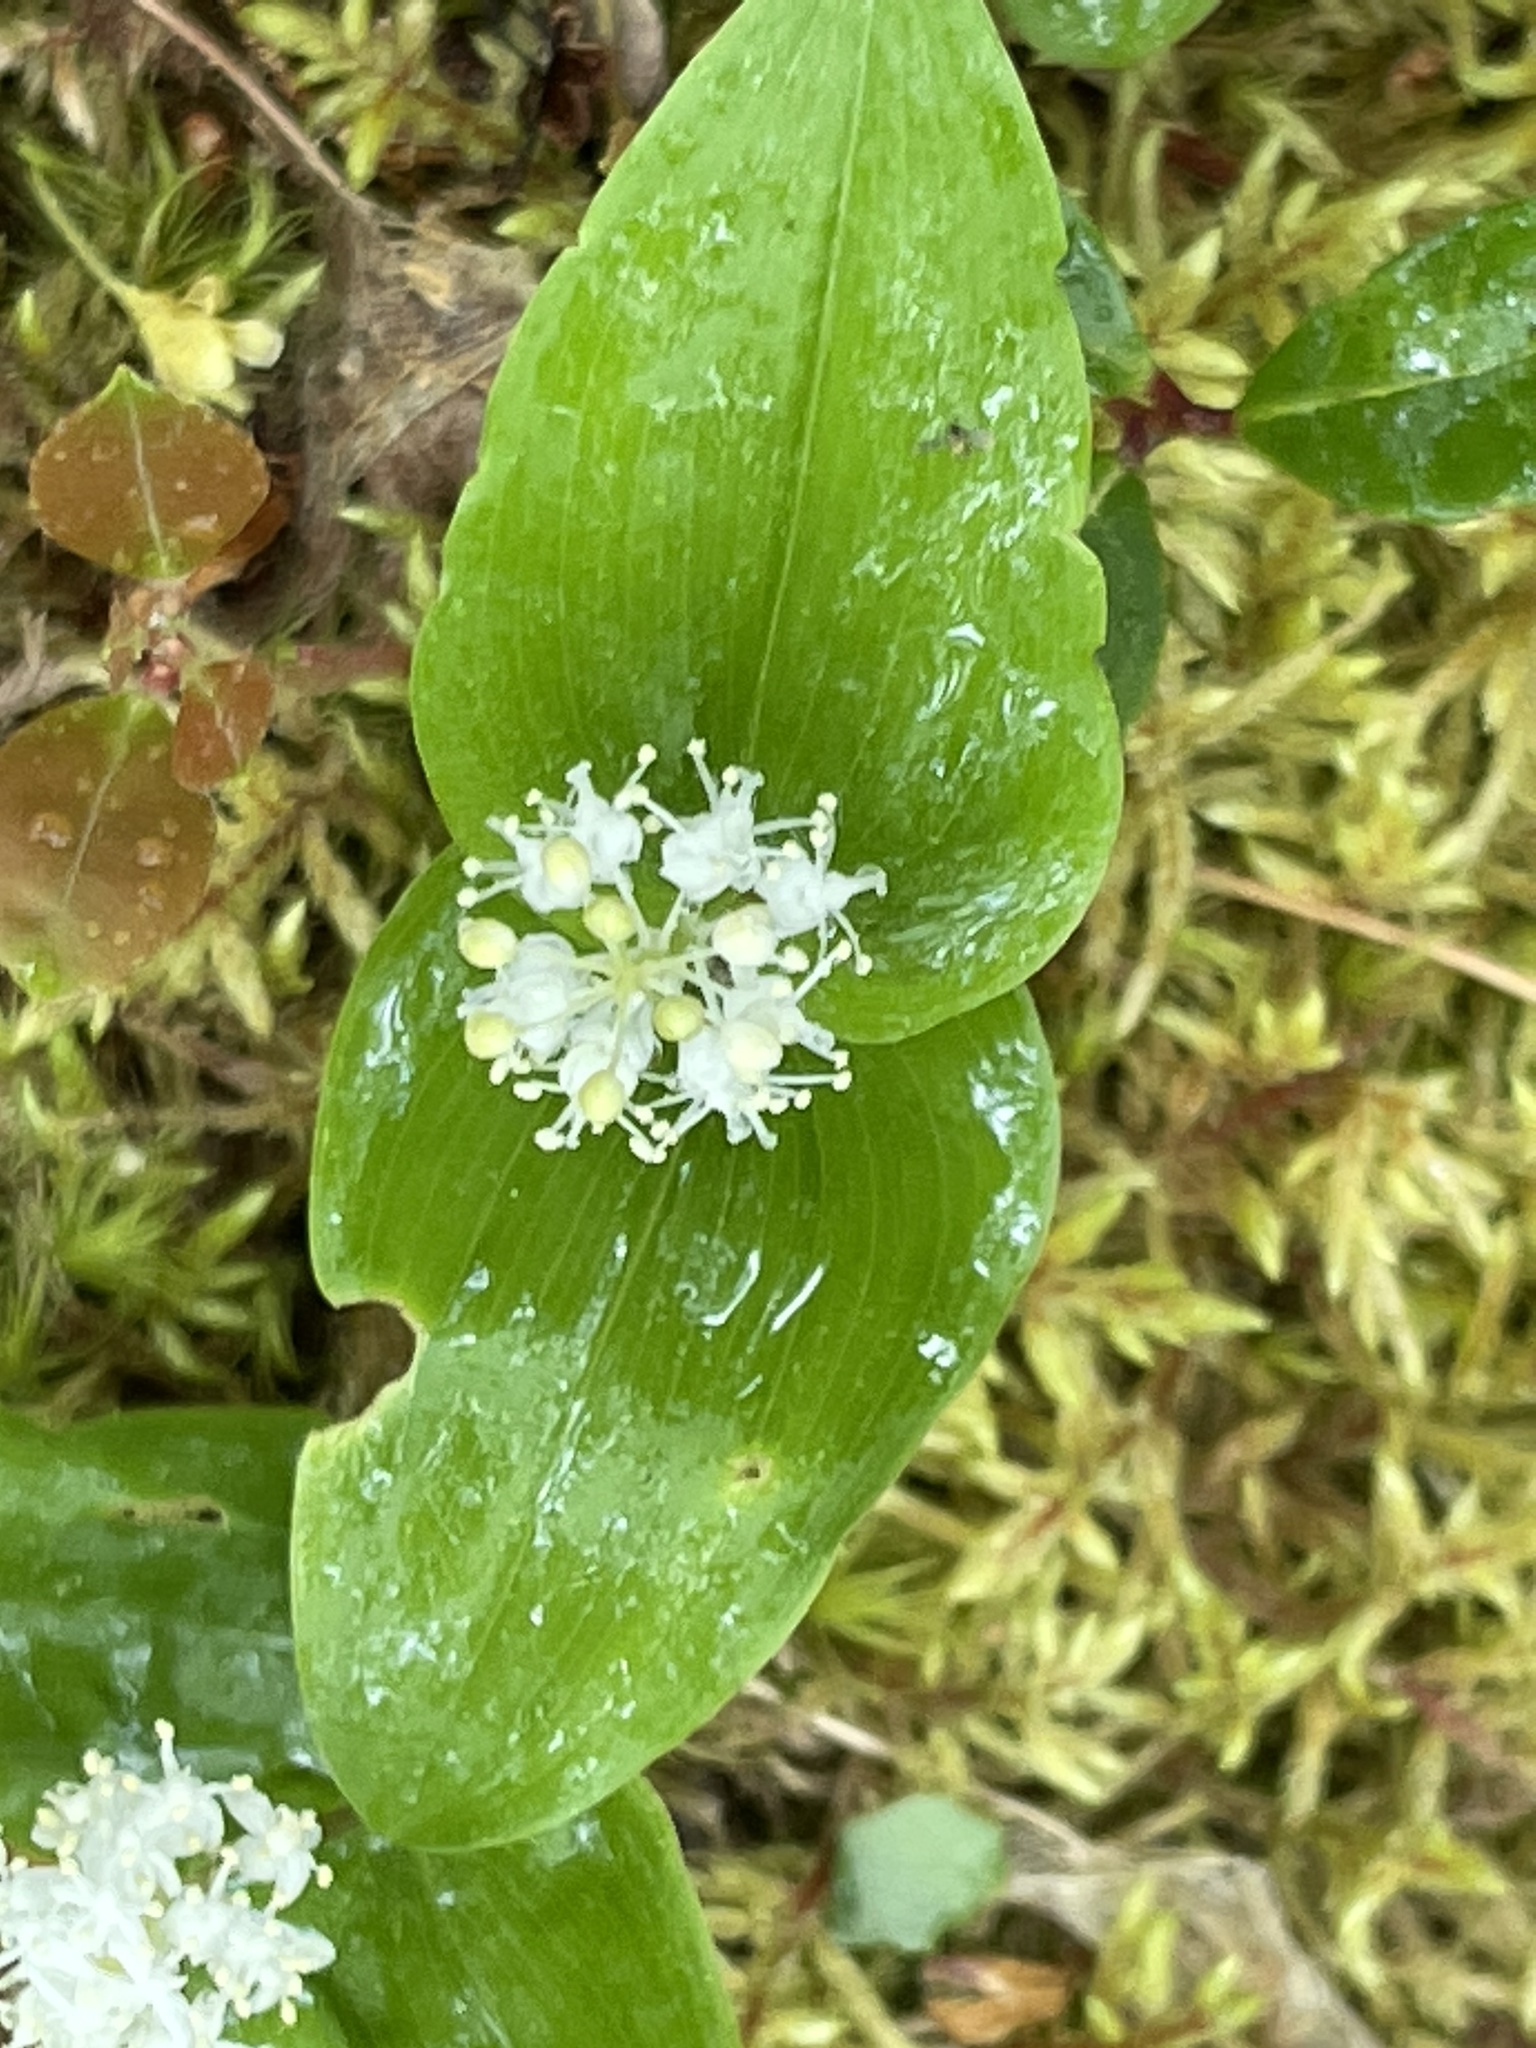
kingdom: Plantae
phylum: Tracheophyta
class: Liliopsida
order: Asparagales
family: Asparagaceae
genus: Maianthemum
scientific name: Maianthemum canadense
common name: False lily-of-the-valley
